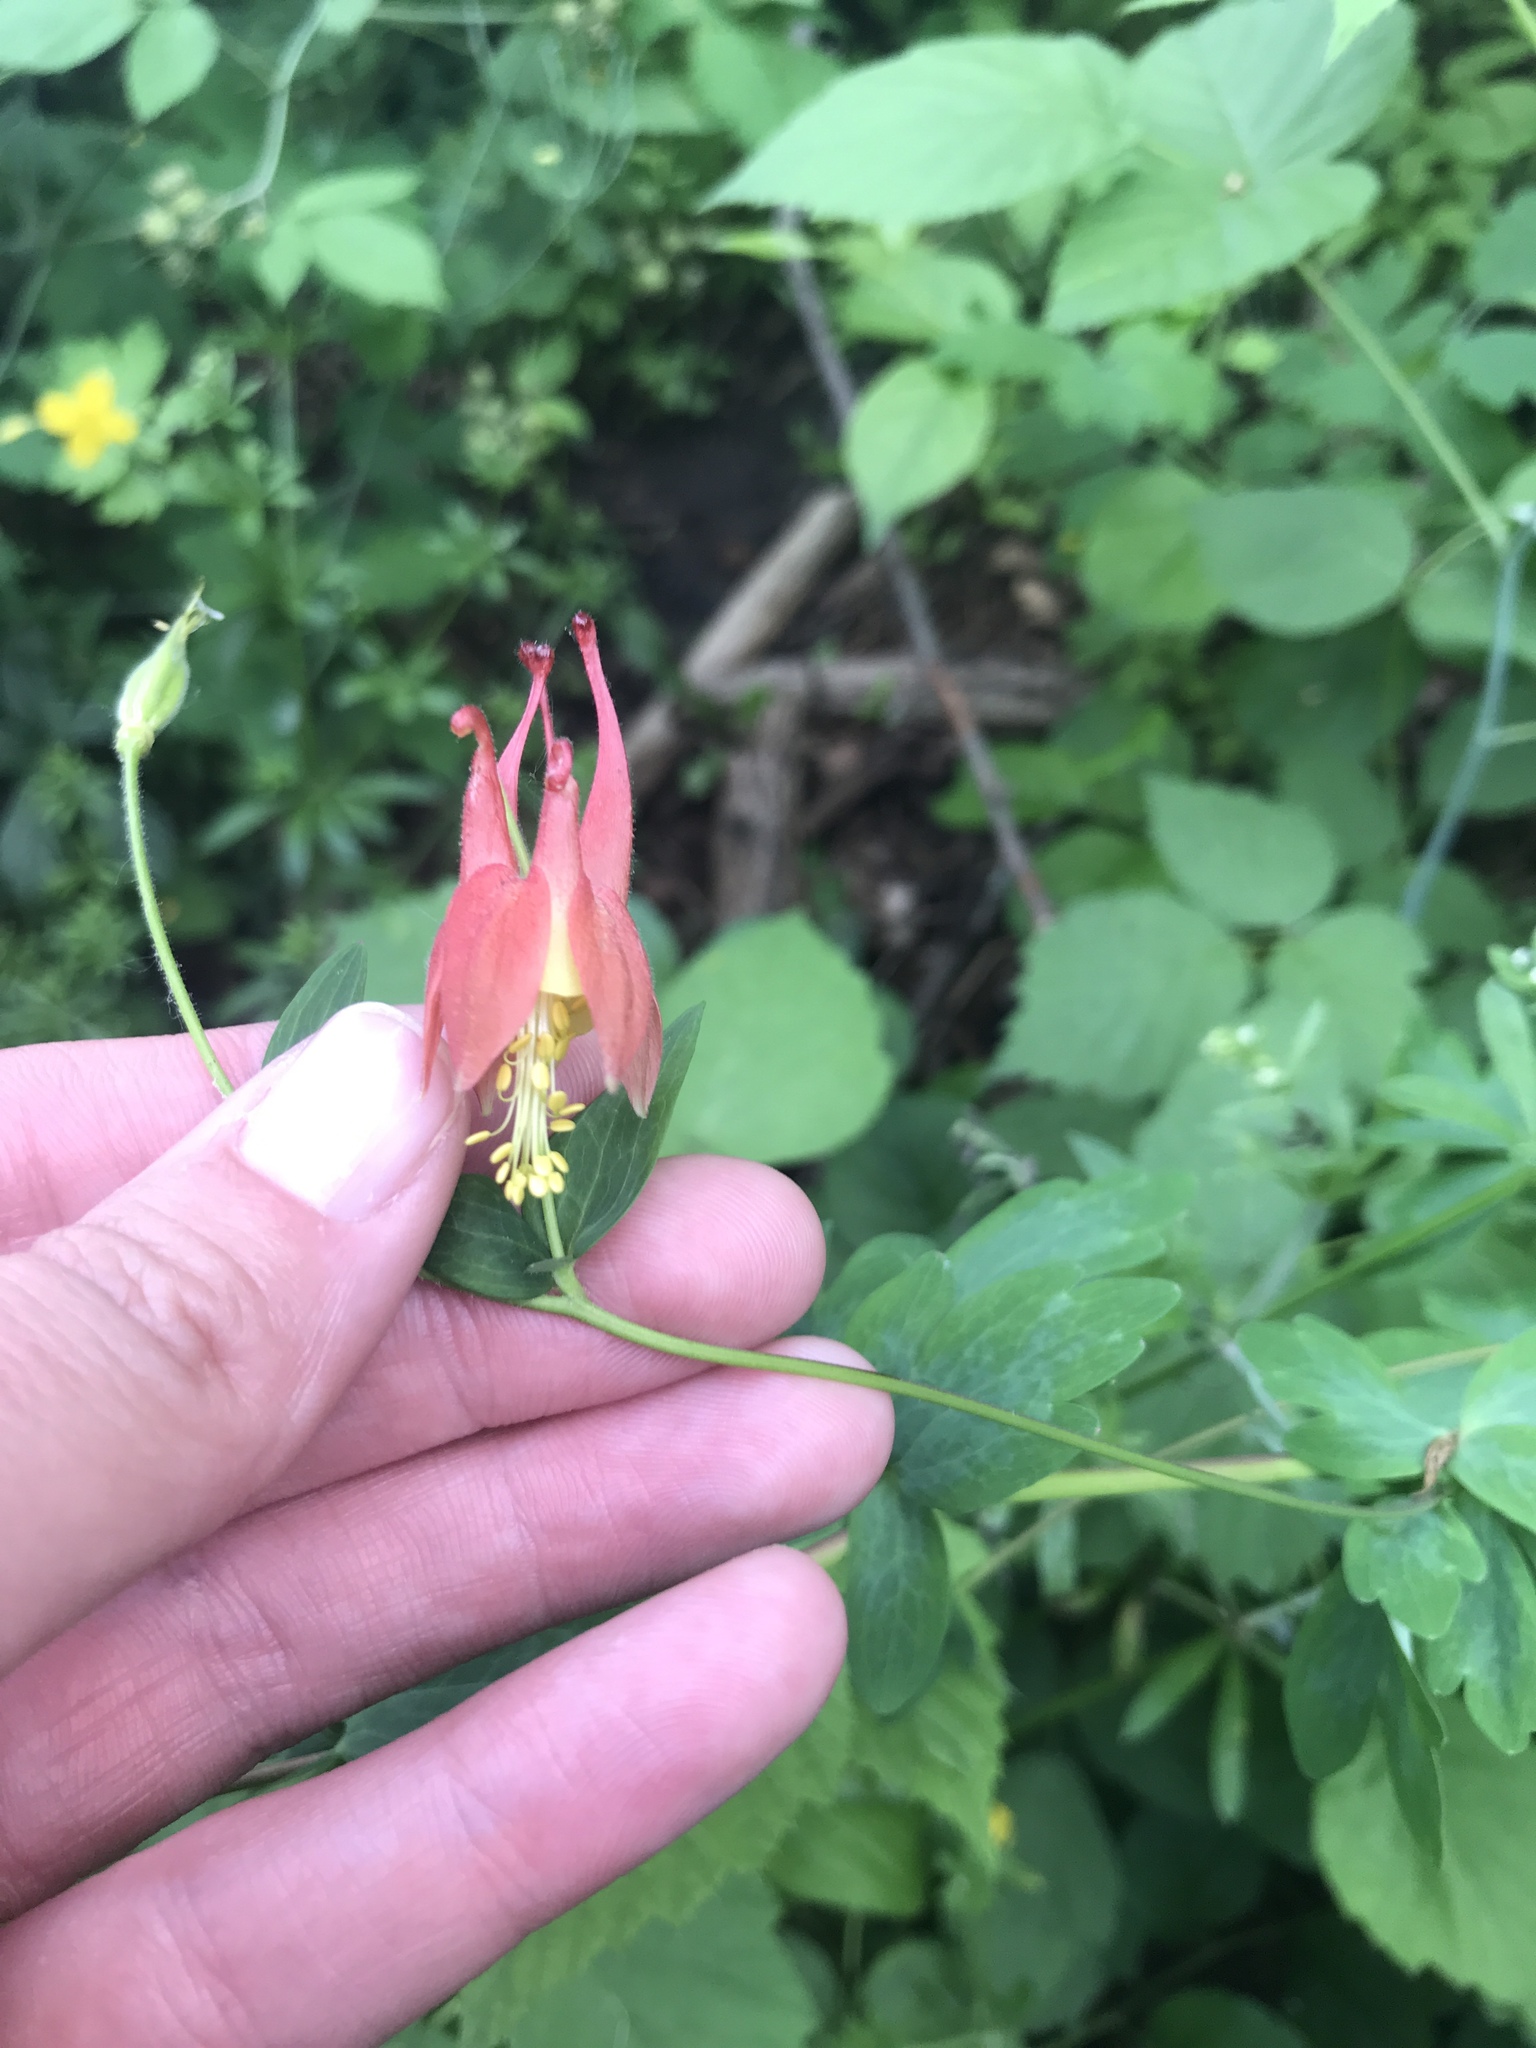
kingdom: Plantae
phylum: Tracheophyta
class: Magnoliopsida
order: Ranunculales
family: Ranunculaceae
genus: Aquilegia
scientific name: Aquilegia canadensis
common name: American columbine
